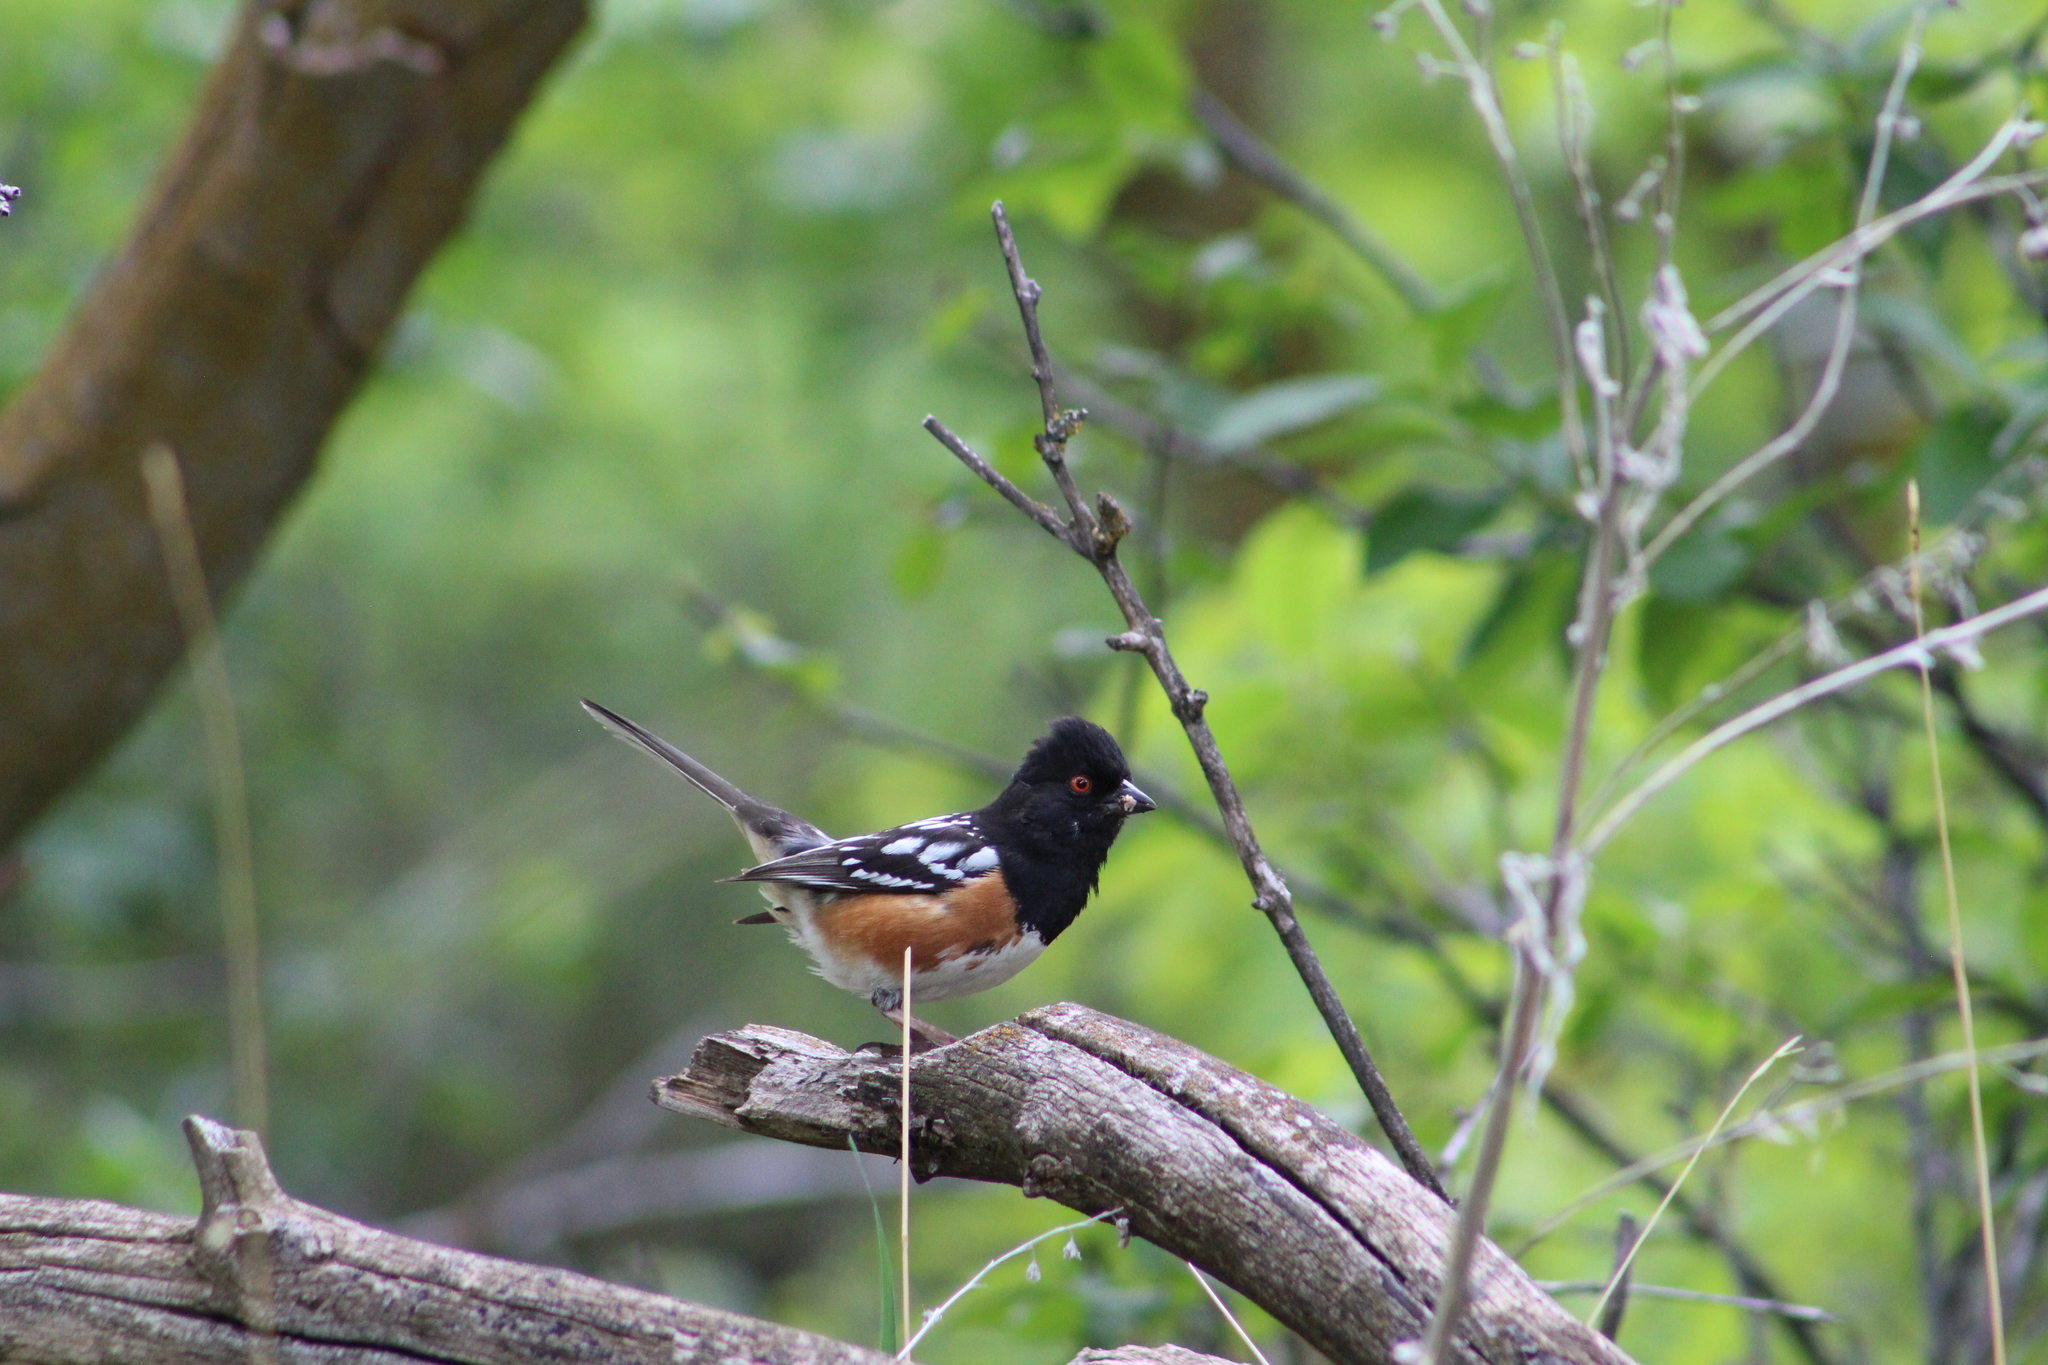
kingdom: Animalia
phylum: Chordata
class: Aves
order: Passeriformes
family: Passerellidae
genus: Pipilo
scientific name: Pipilo maculatus
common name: Spotted towhee
